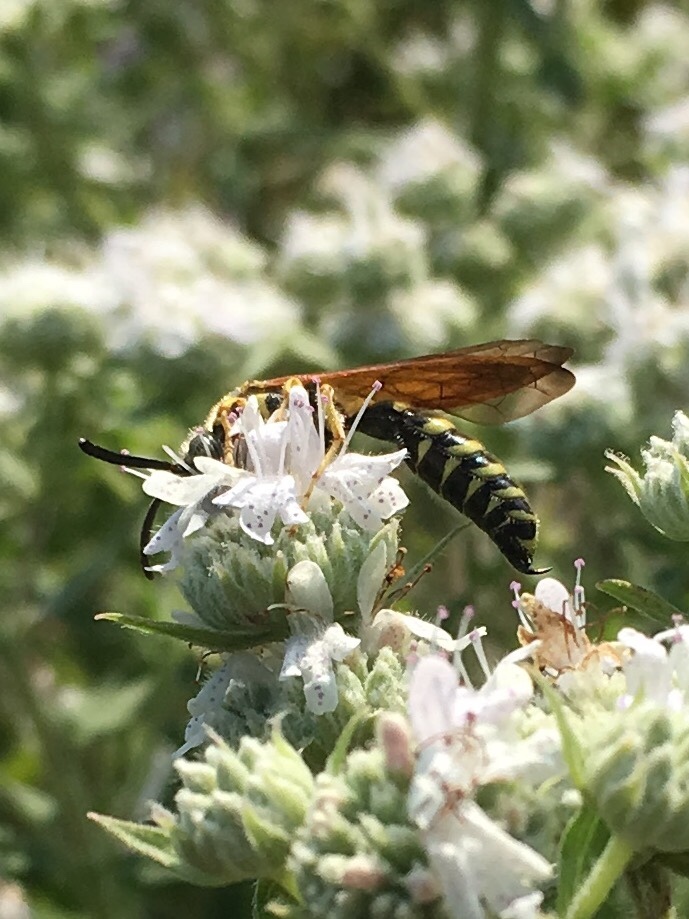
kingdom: Animalia
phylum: Arthropoda
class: Insecta
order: Hymenoptera
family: Tiphiidae
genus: Myzinum
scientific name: Myzinum quinquecinctum
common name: Five-banded thynnid wasp
